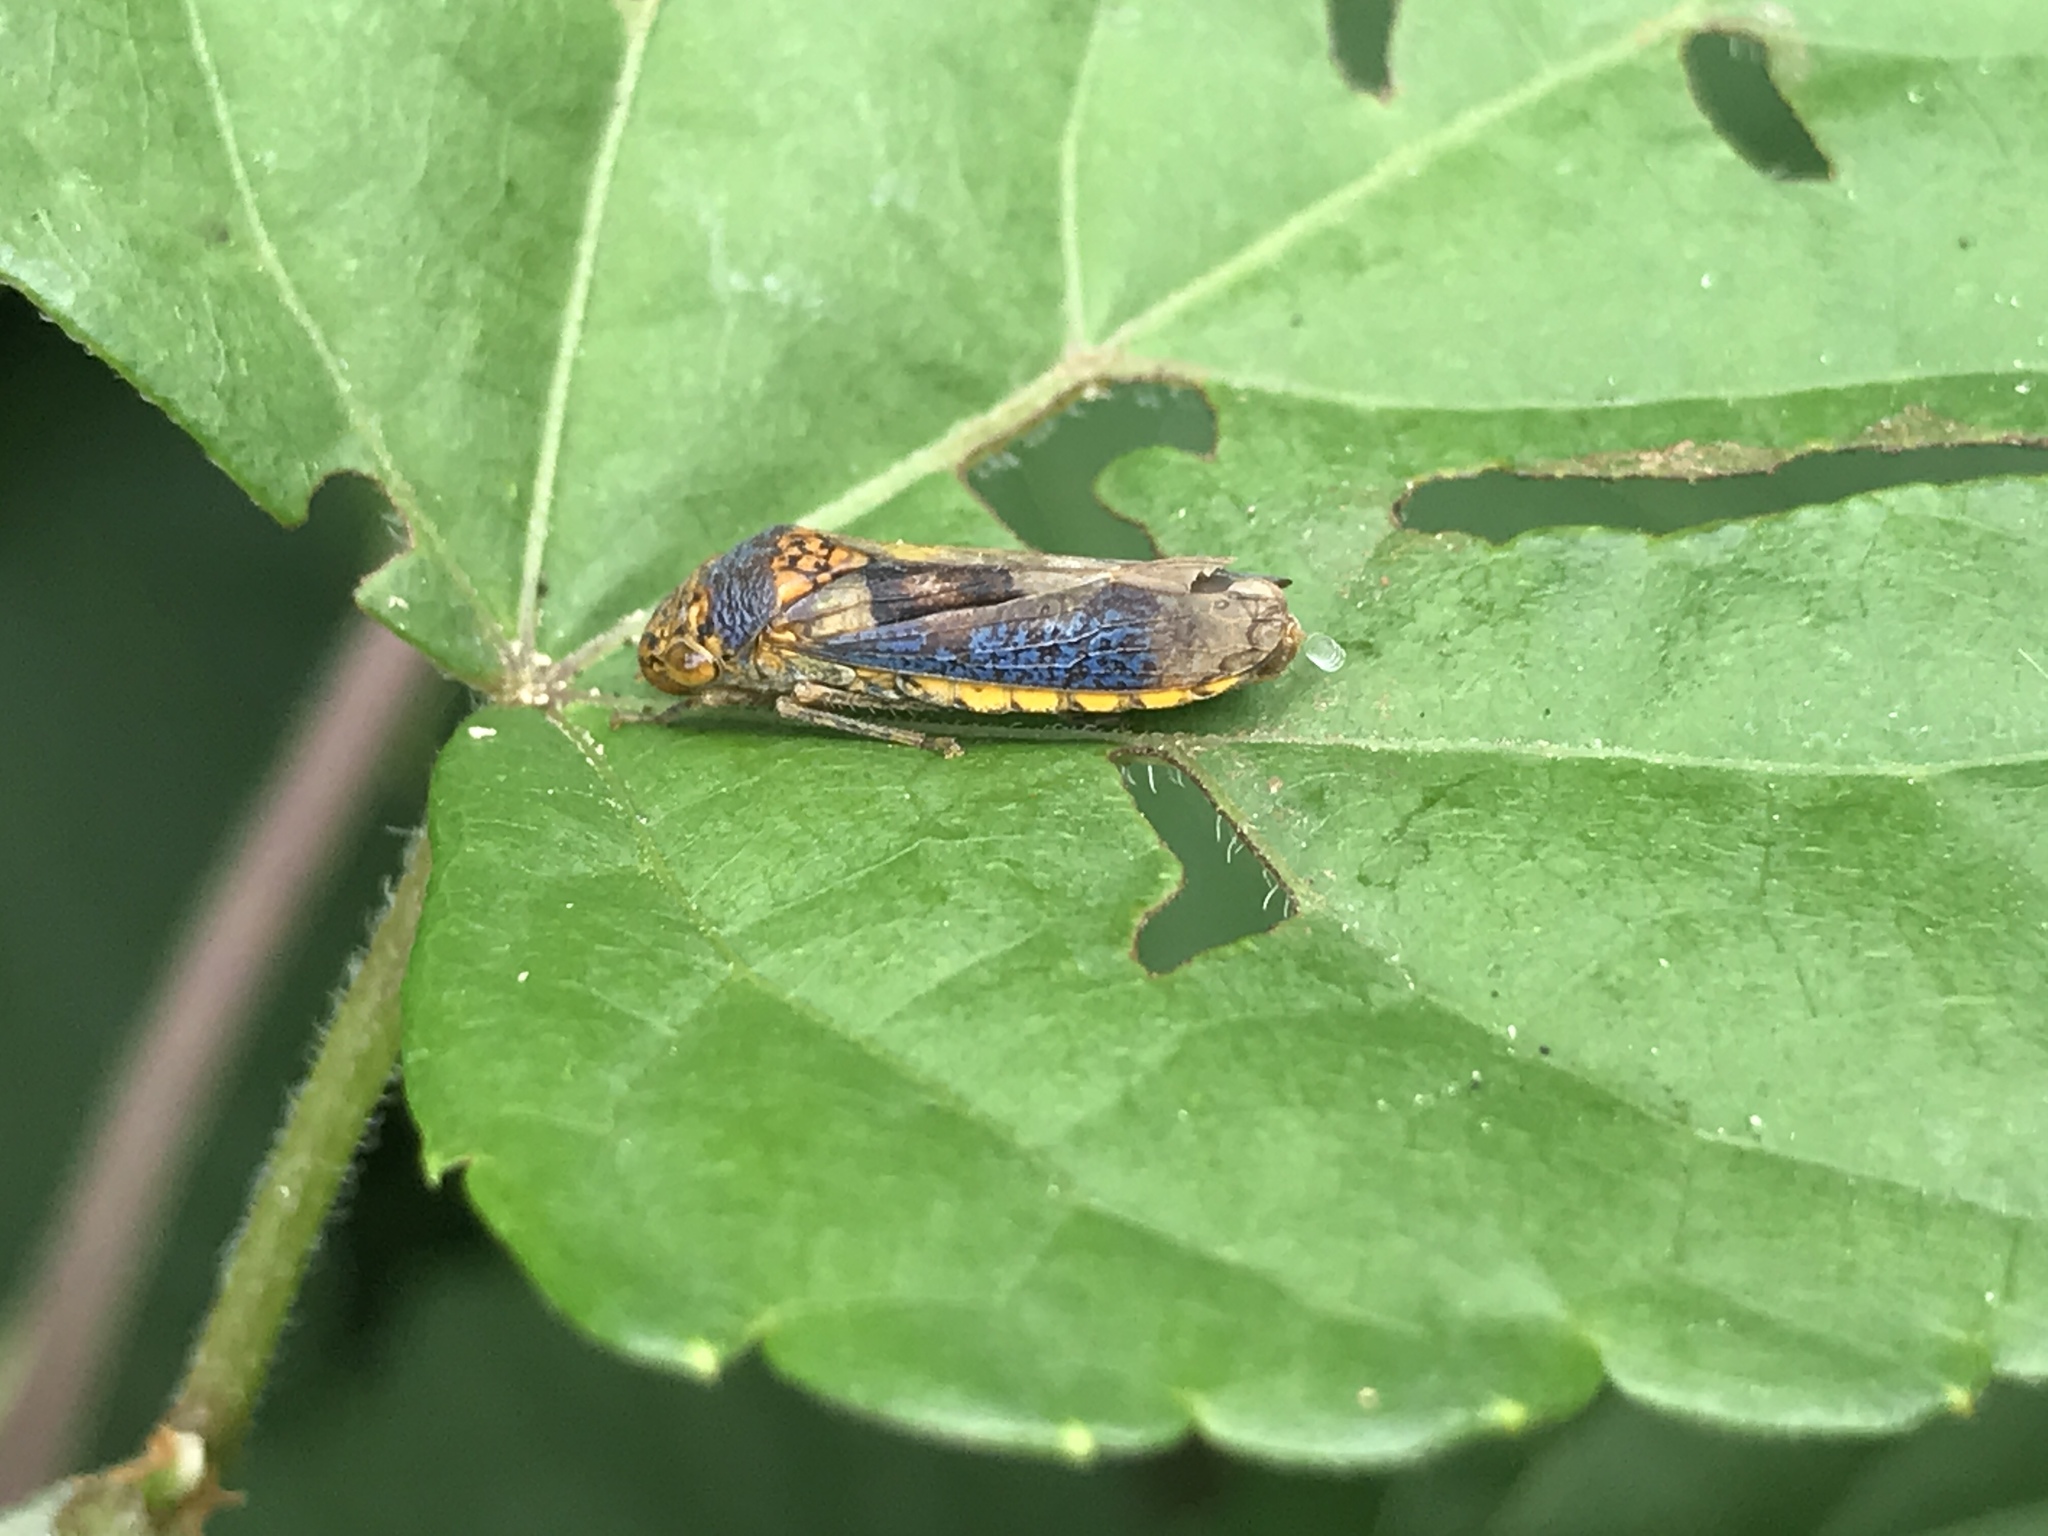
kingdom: Animalia
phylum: Arthropoda
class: Insecta
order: Hemiptera
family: Cicadellidae
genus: Oncometopia
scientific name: Oncometopia orbona
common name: Broad-headed sharpshooter
